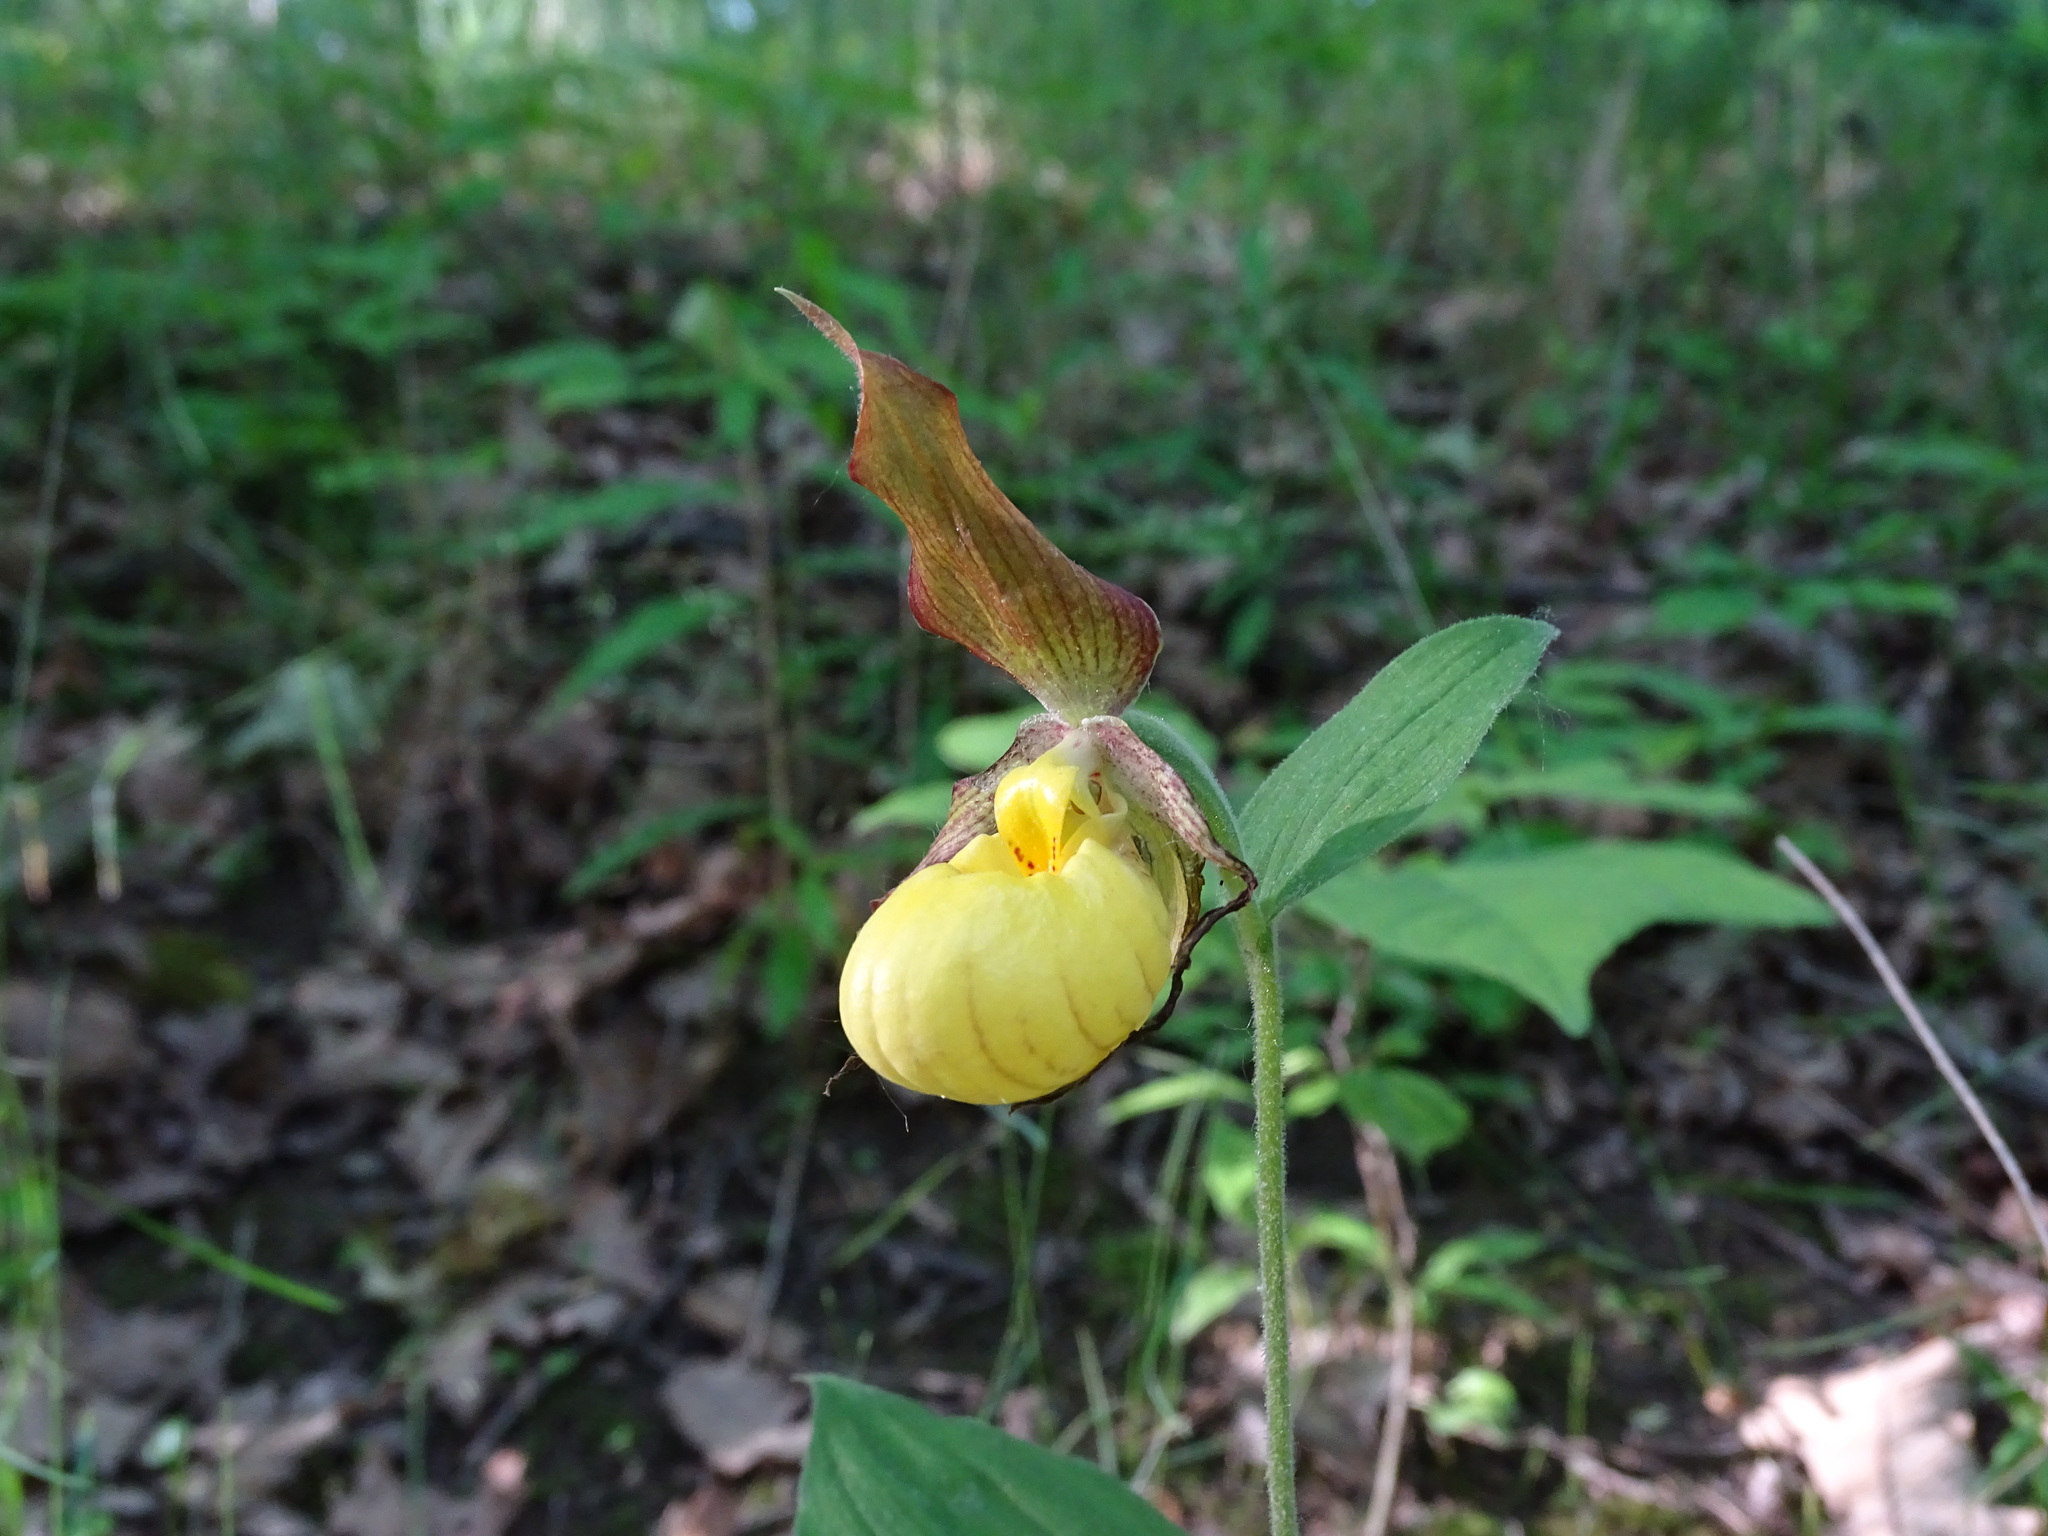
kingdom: Plantae
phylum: Tracheophyta
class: Liliopsida
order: Asparagales
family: Orchidaceae
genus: Cypripedium
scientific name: Cypripedium parviflorum
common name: American yellow lady's-slipper
